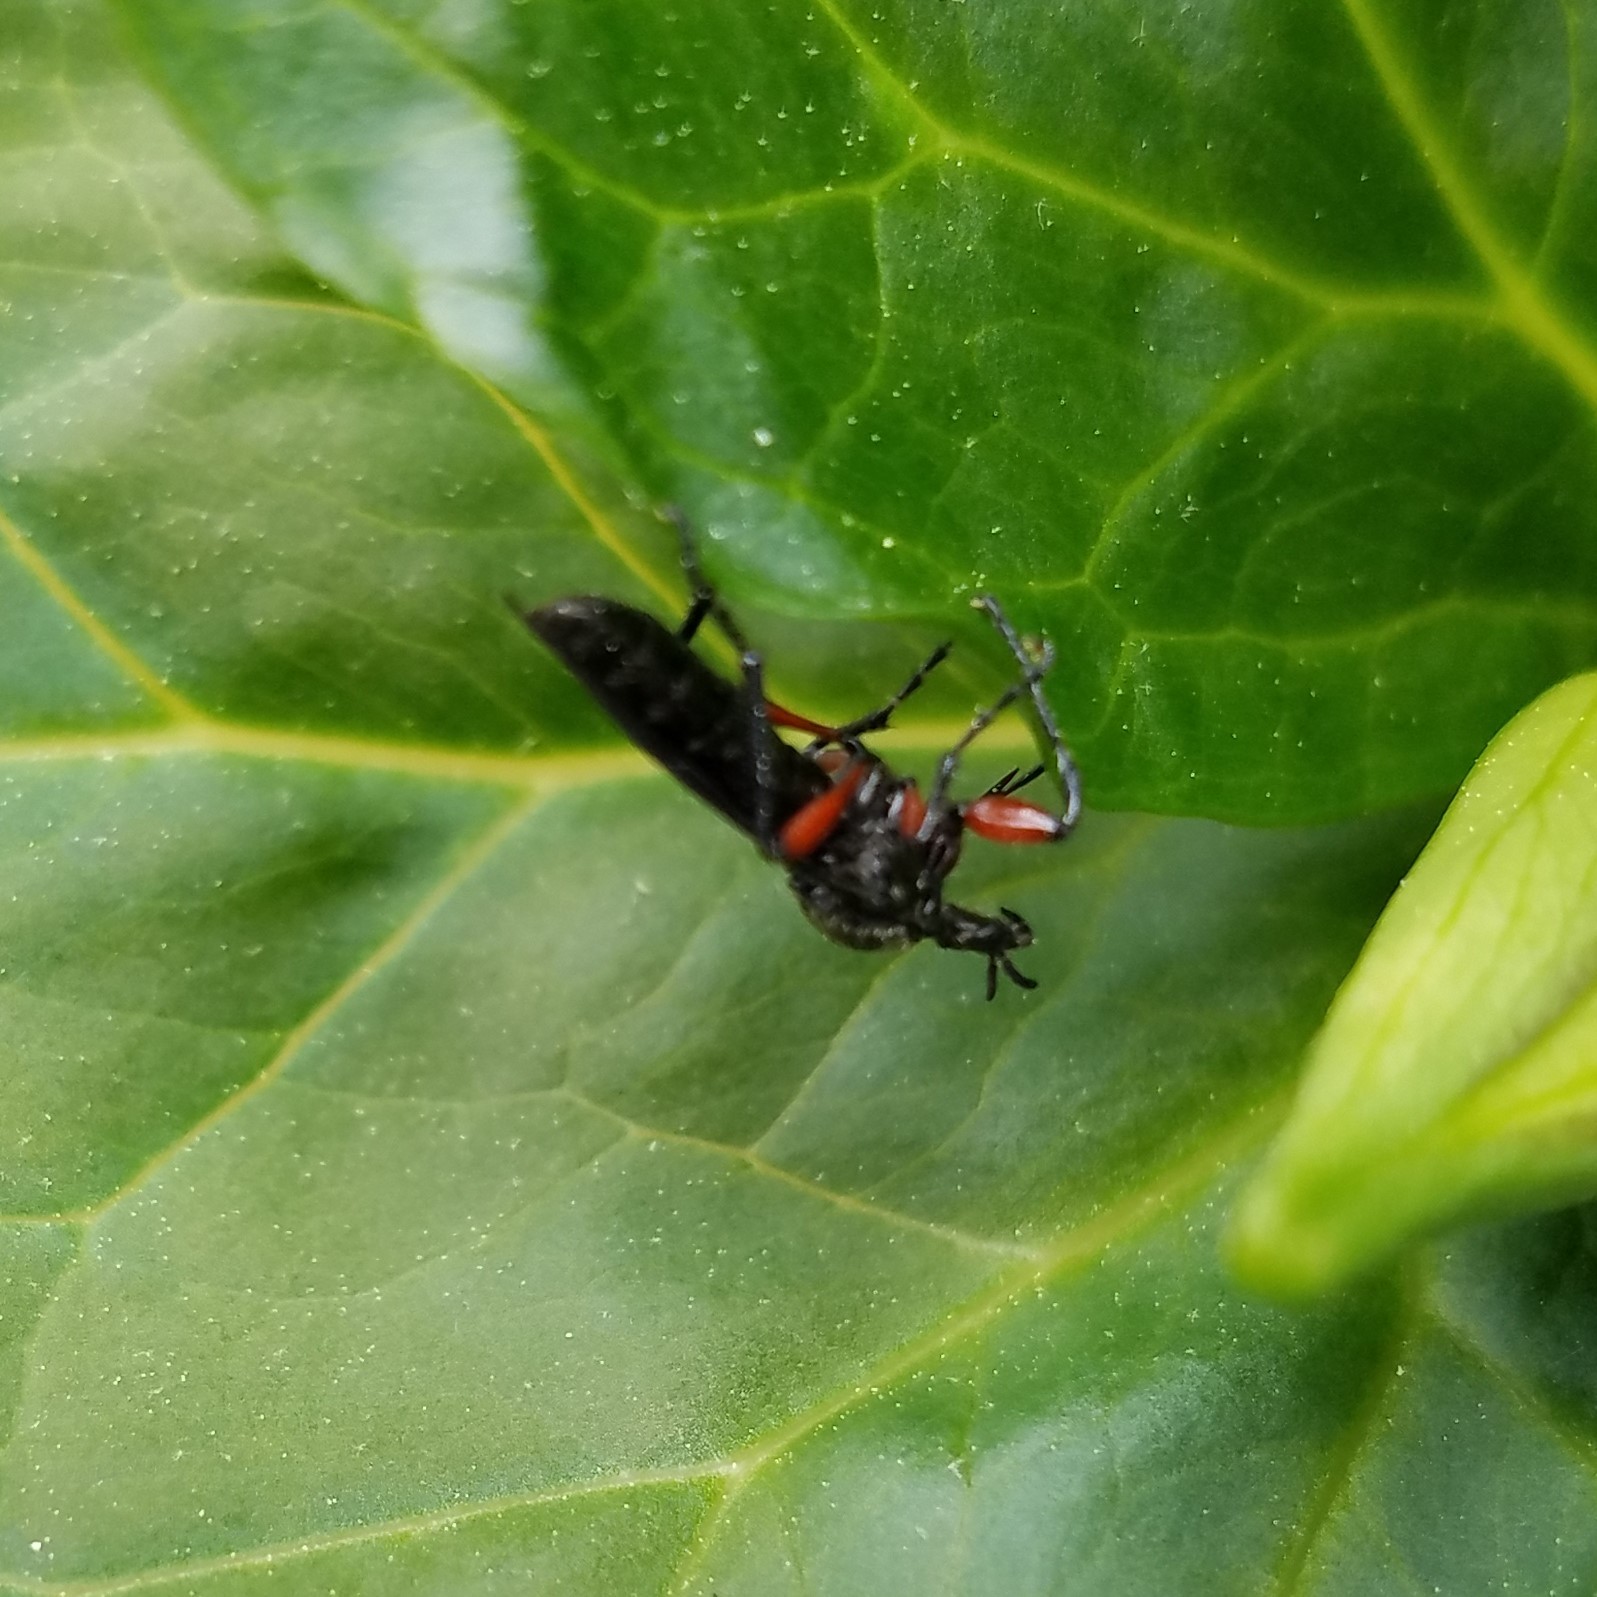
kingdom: Animalia
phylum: Arthropoda
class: Insecta
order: Diptera
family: Bibionidae
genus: Bibio
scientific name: Bibio femoratus
